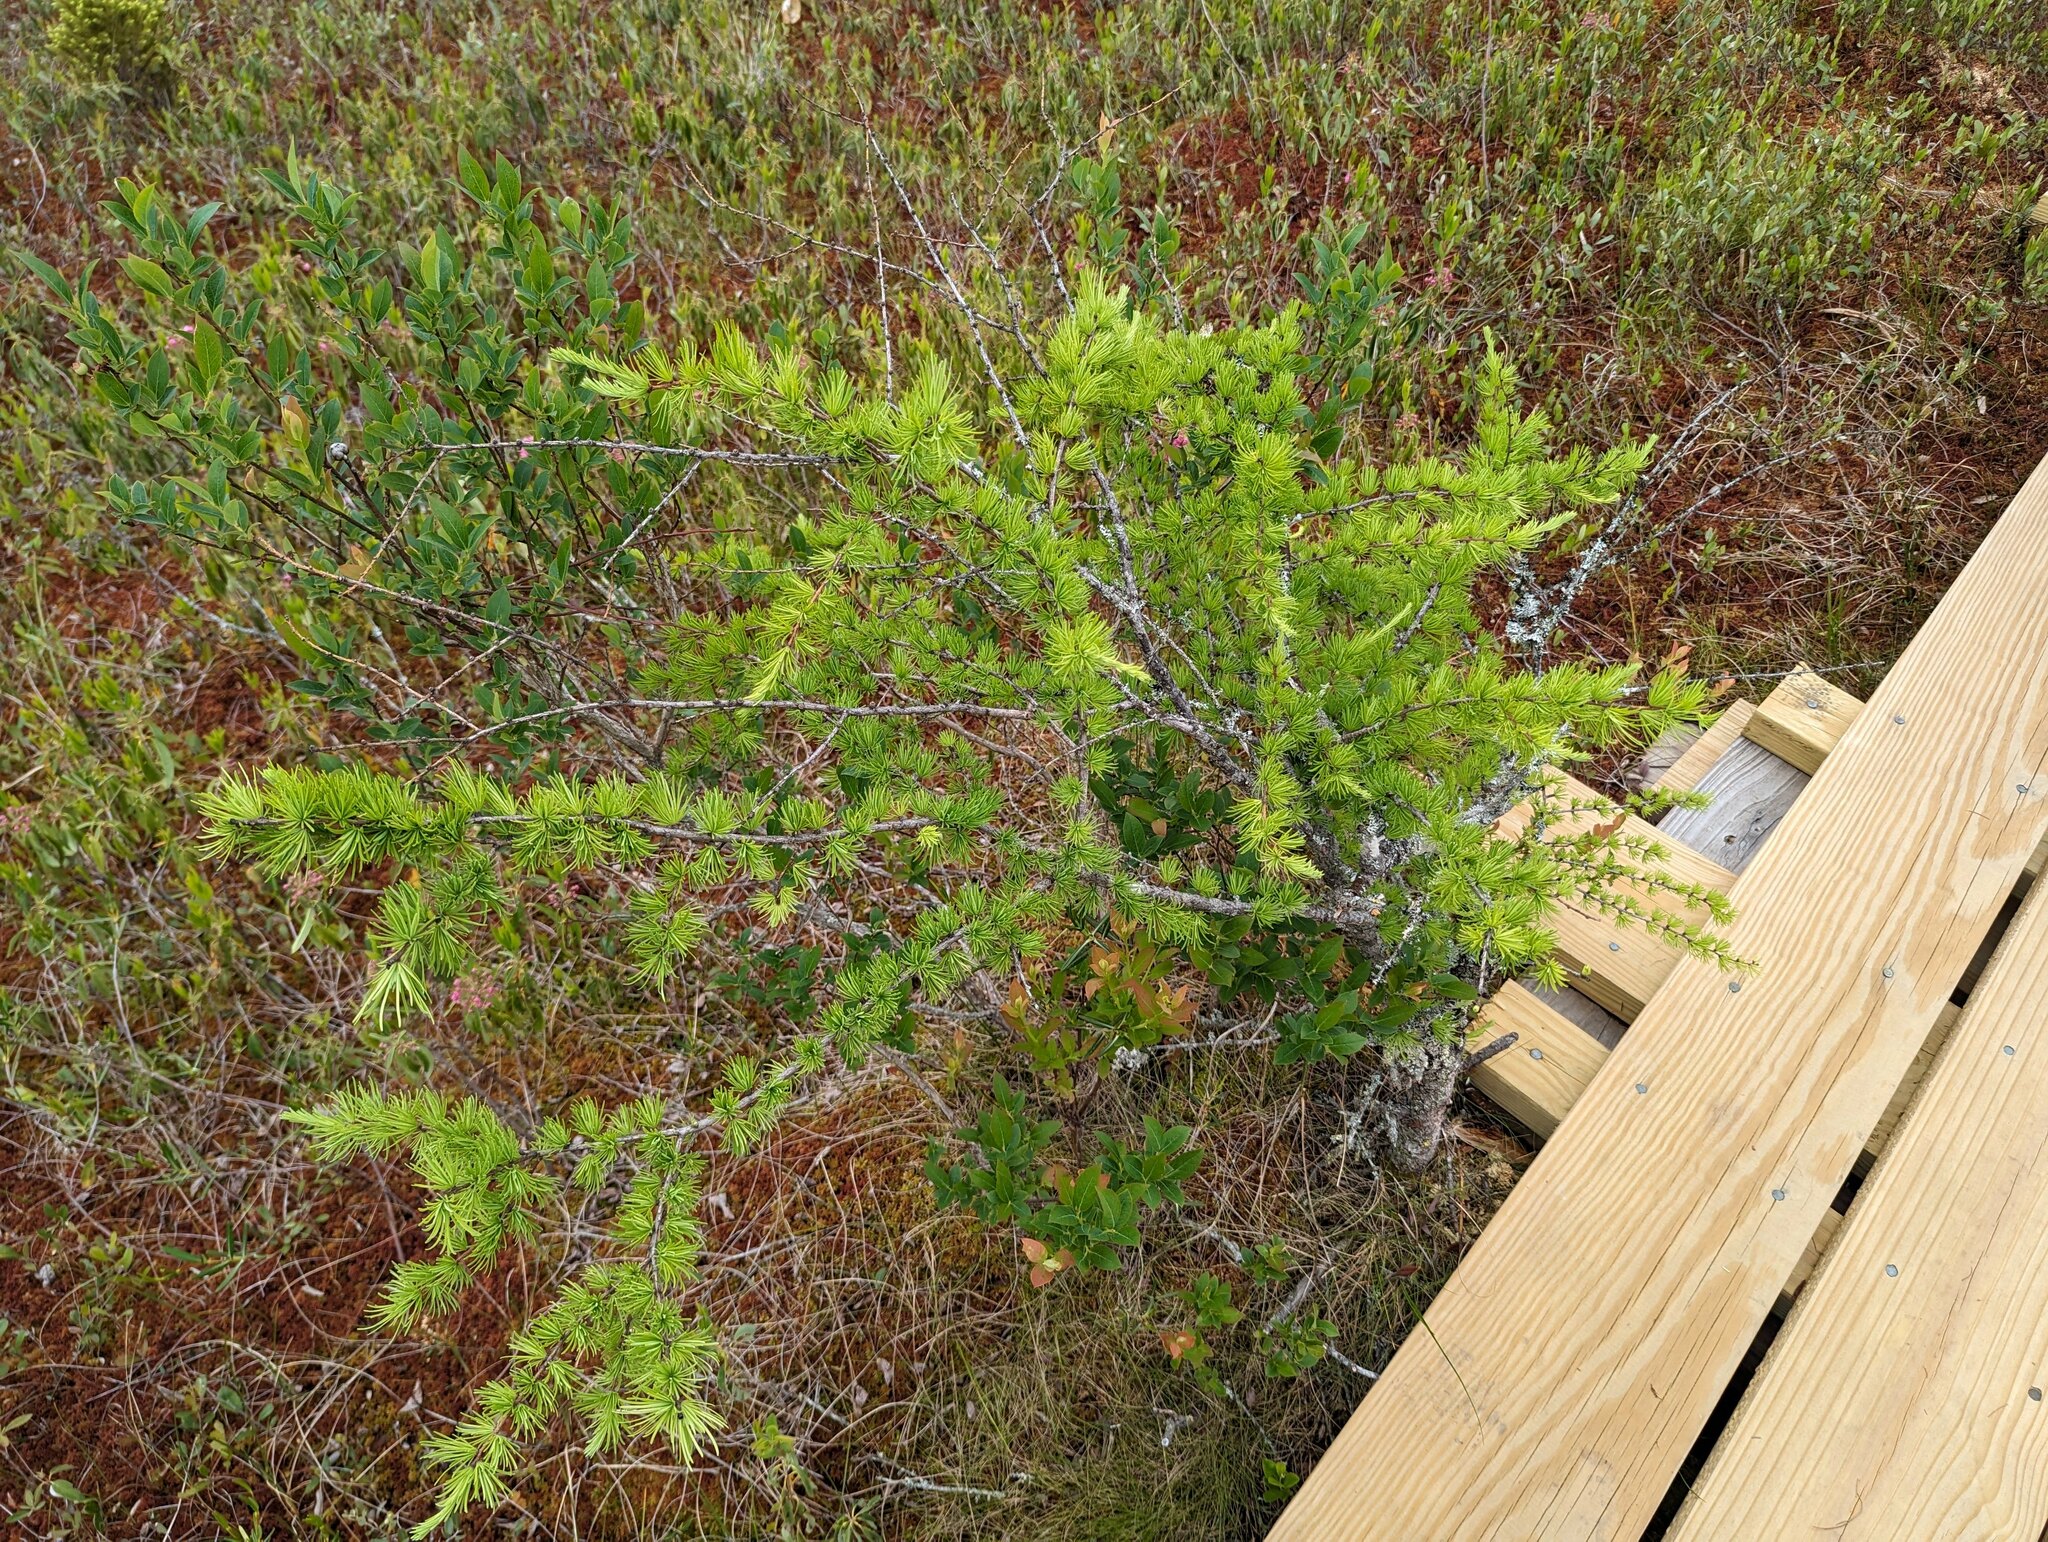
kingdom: Plantae
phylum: Tracheophyta
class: Pinopsida
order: Pinales
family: Pinaceae
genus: Larix
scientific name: Larix laricina
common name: American larch
